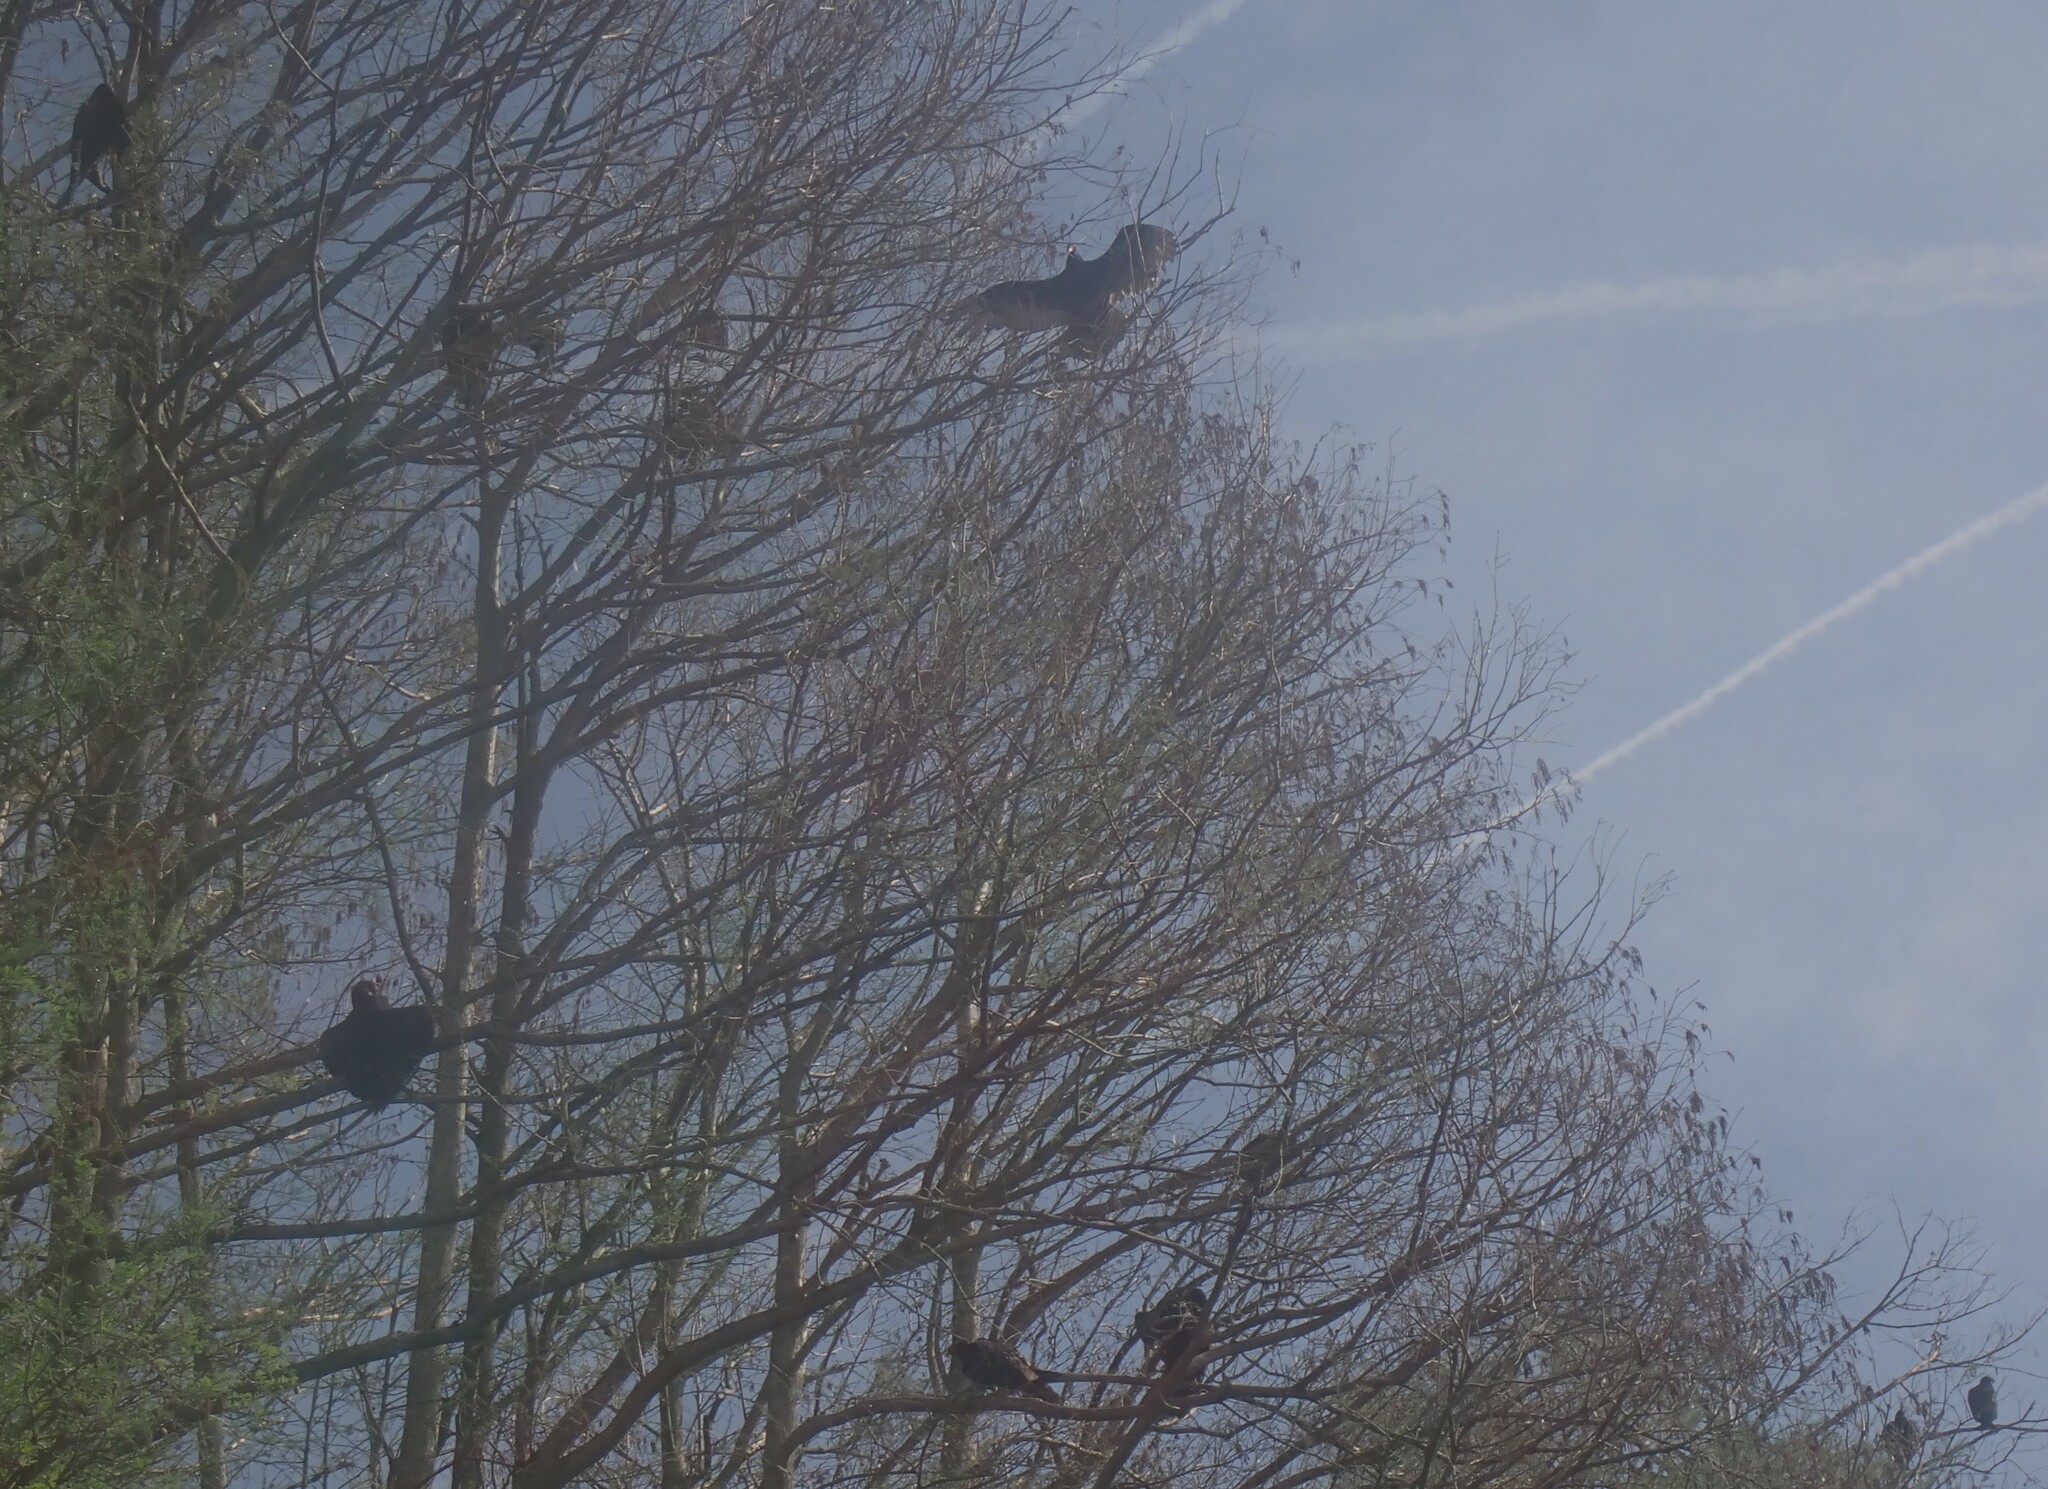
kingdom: Animalia
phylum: Chordata
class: Aves
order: Accipitriformes
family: Cathartidae
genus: Cathartes
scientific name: Cathartes aura
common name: Turkey vulture
